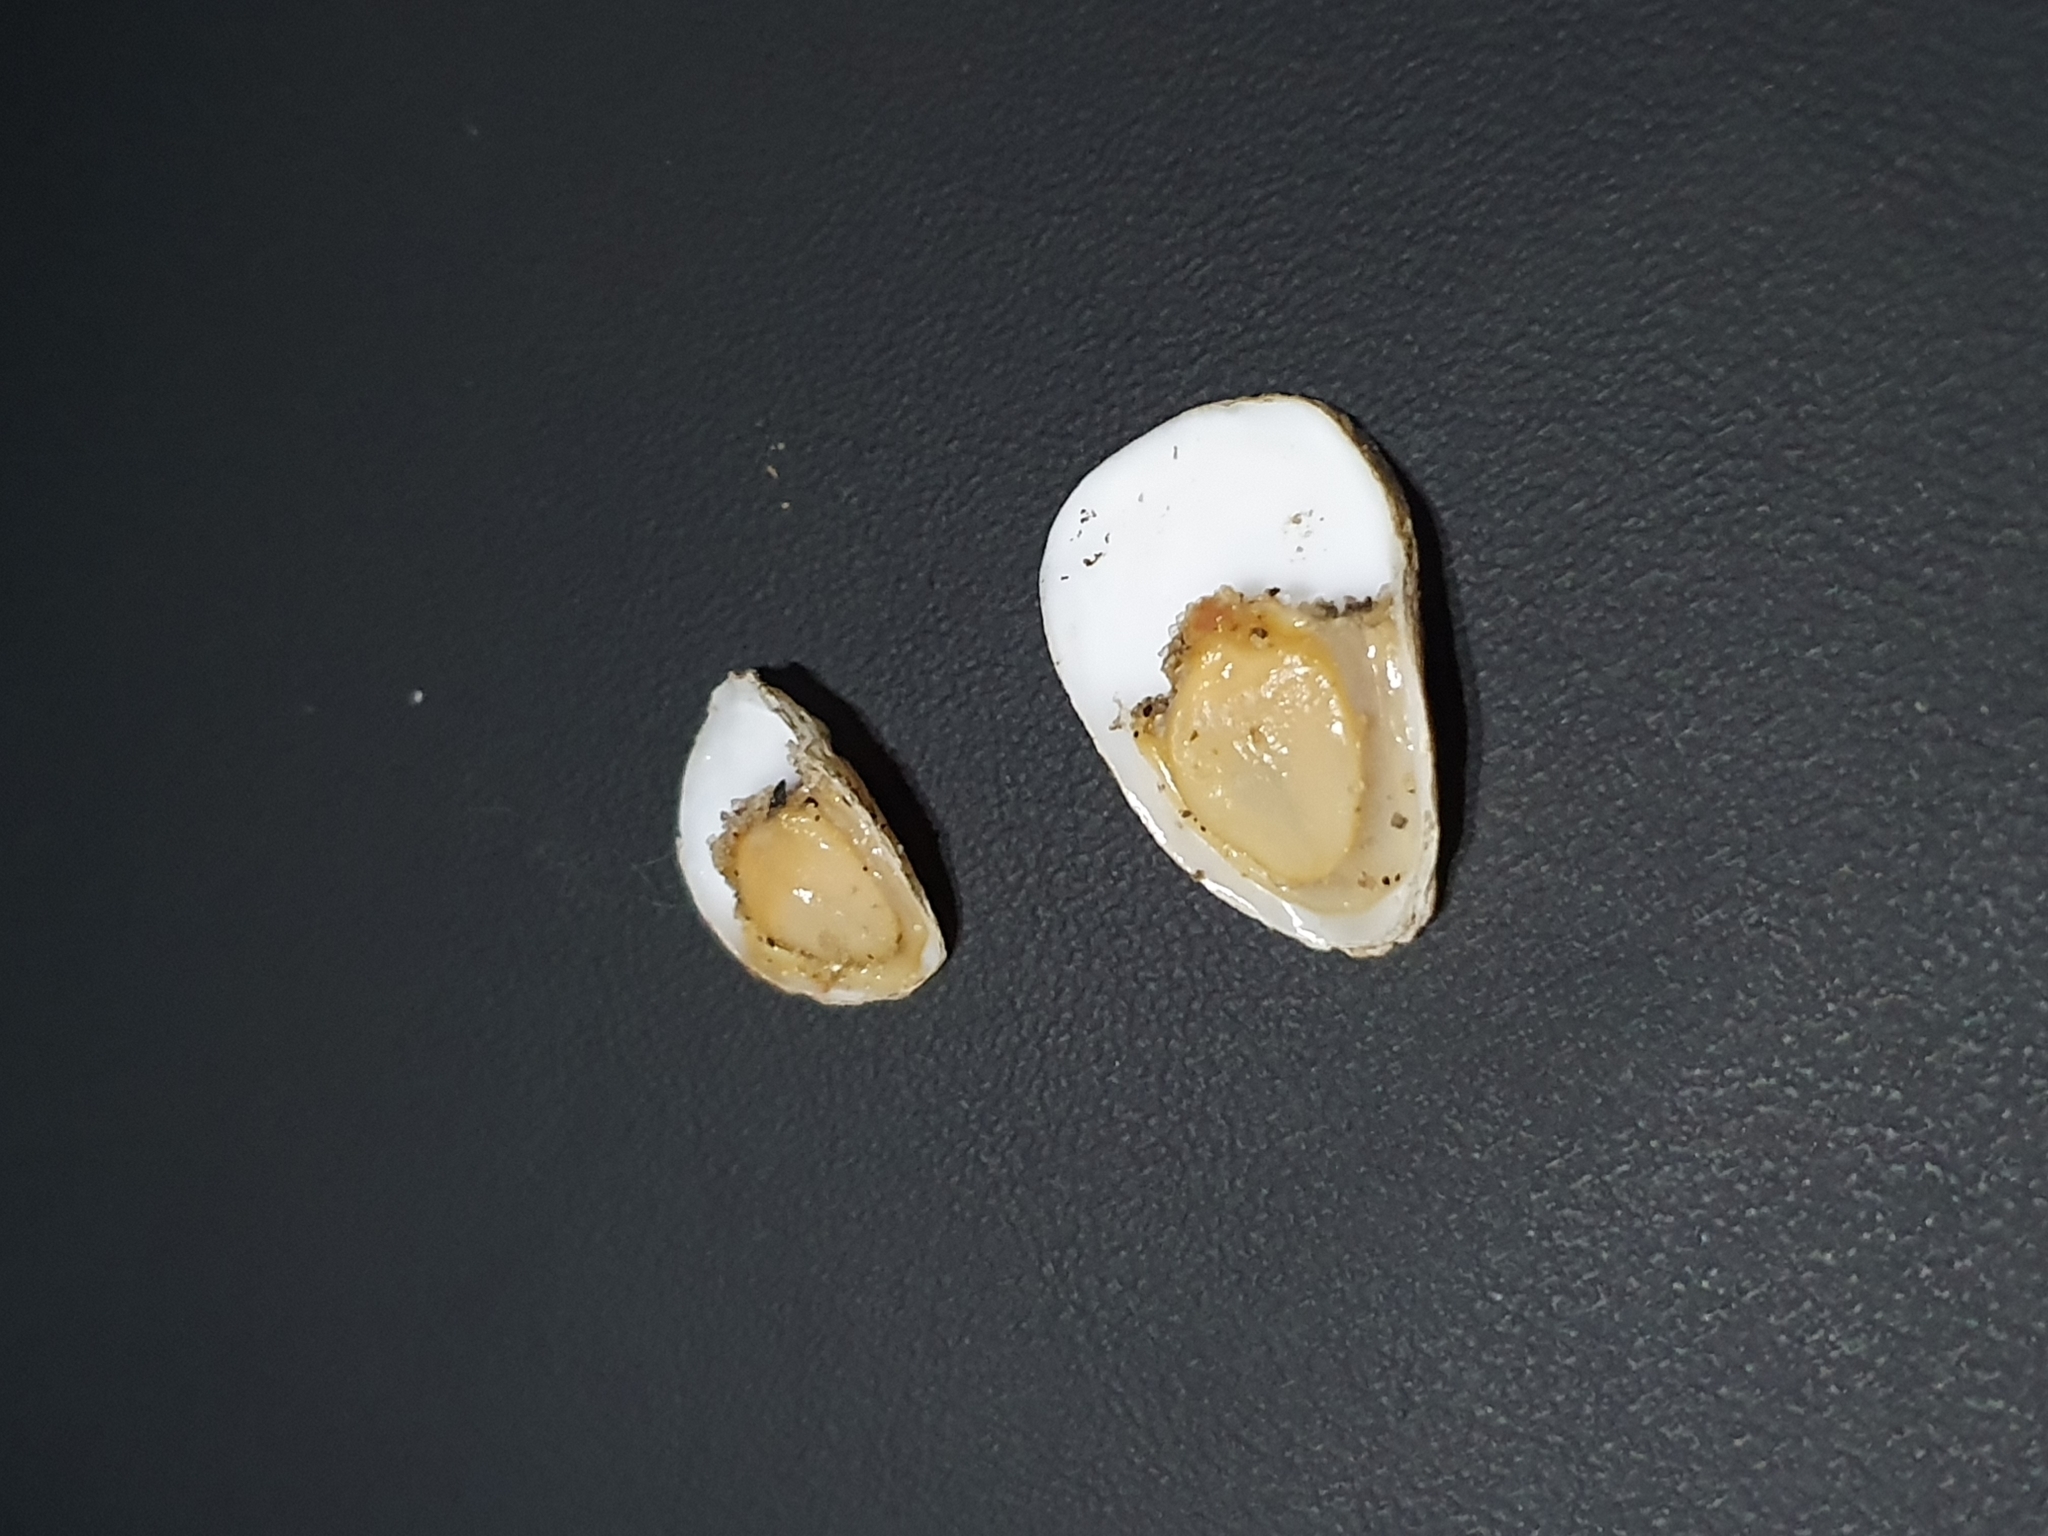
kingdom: Animalia
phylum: Mollusca
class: Gastropoda
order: Littorinimorpha
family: Calyptraeidae
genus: Crepidula
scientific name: Crepidula plana
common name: Eastern white slippersnail
